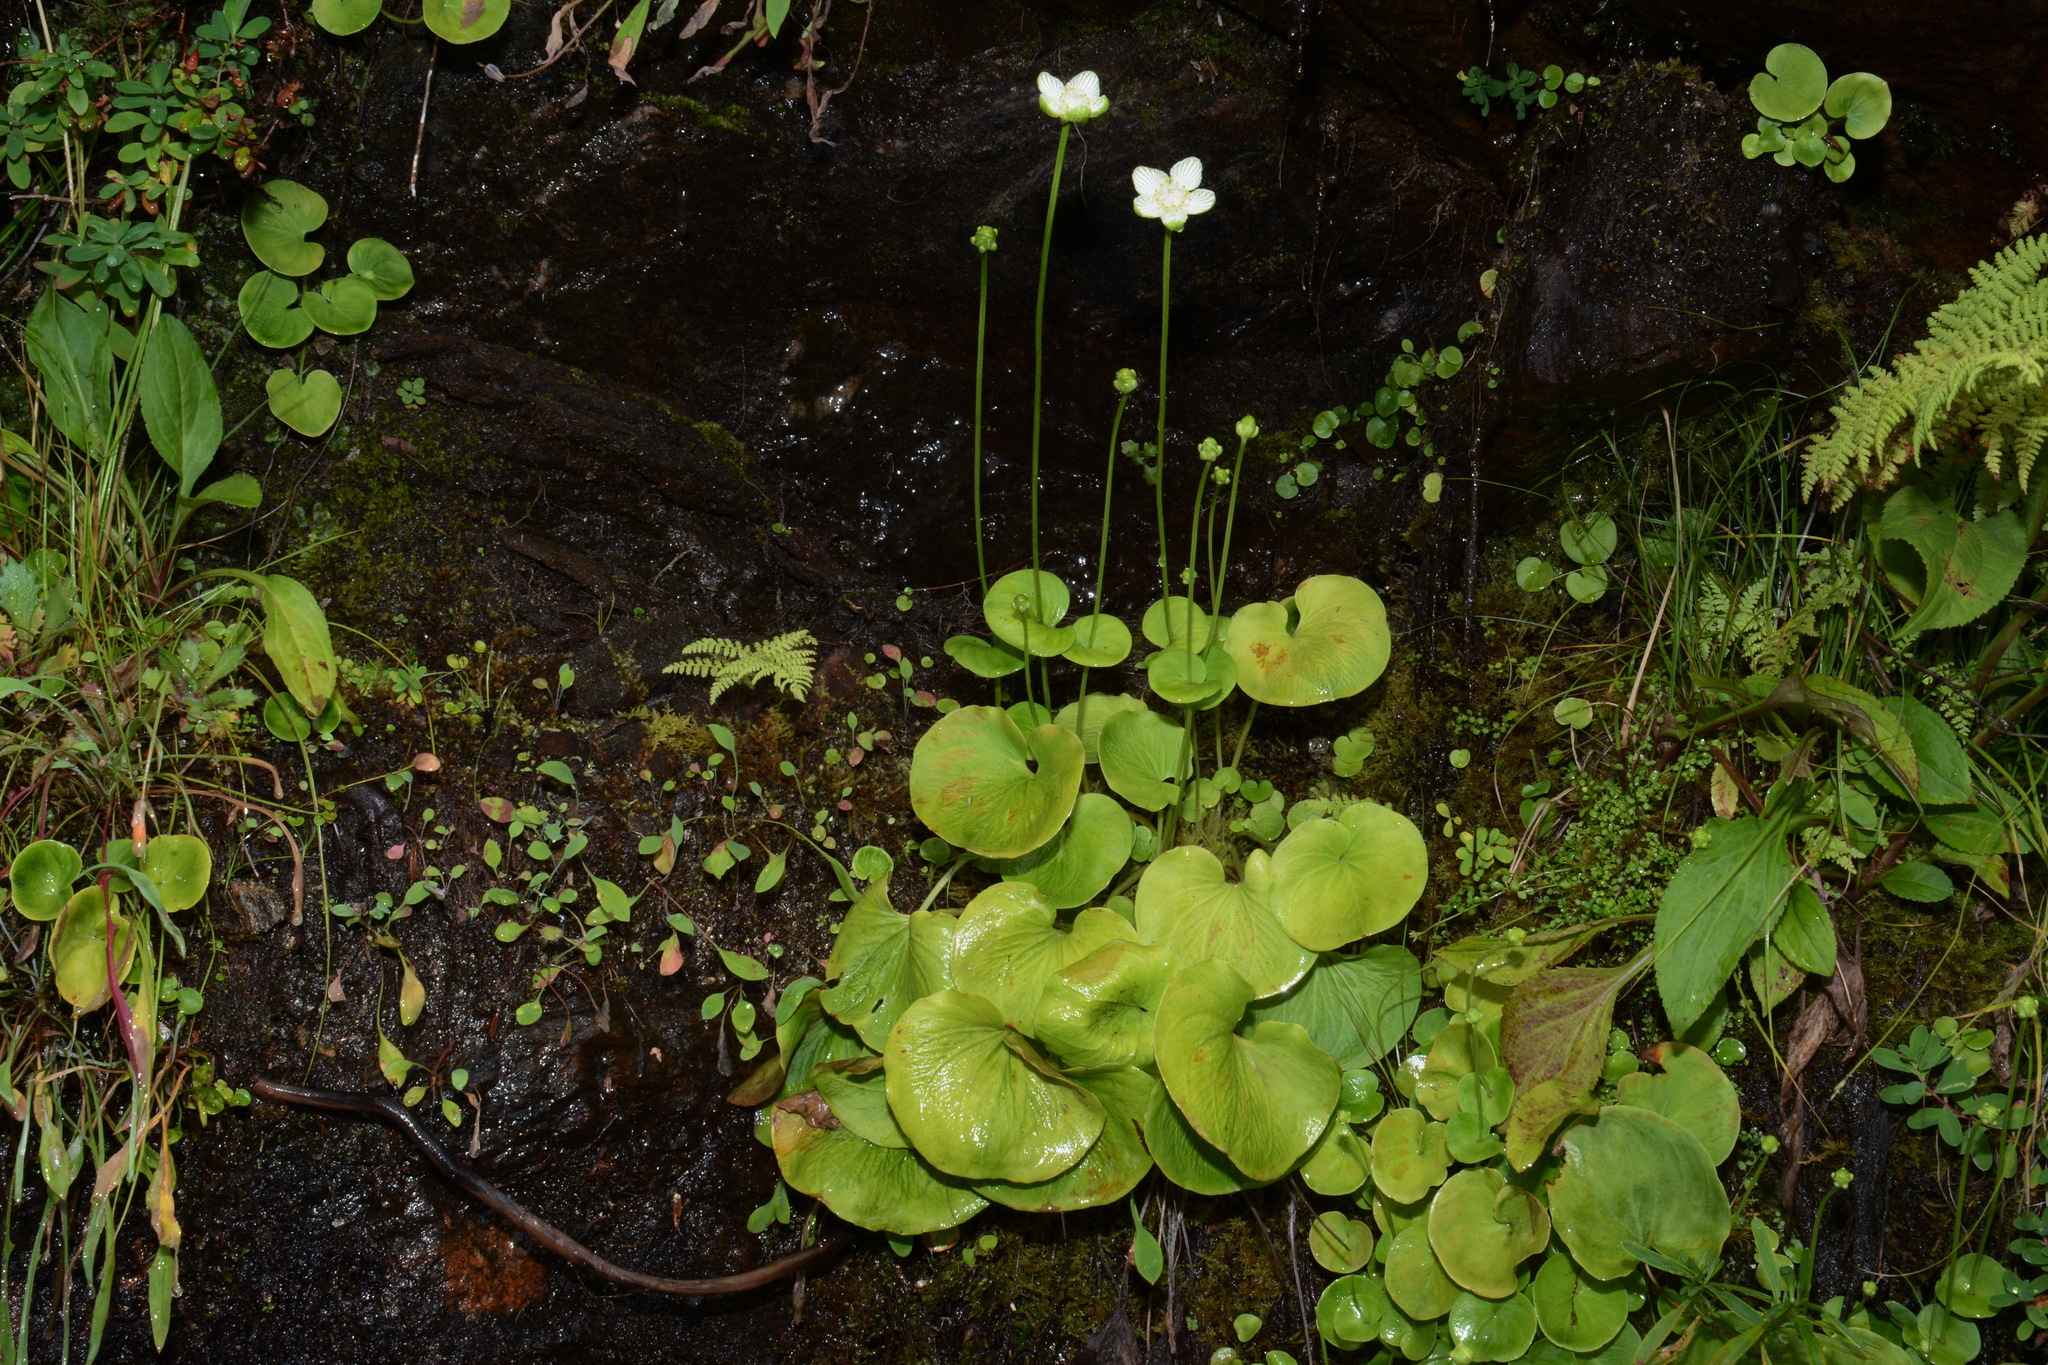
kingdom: Plantae
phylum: Tracheophyta
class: Magnoliopsida
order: Celastrales
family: Parnassiaceae
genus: Parnassia
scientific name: Parnassia asarifolia
